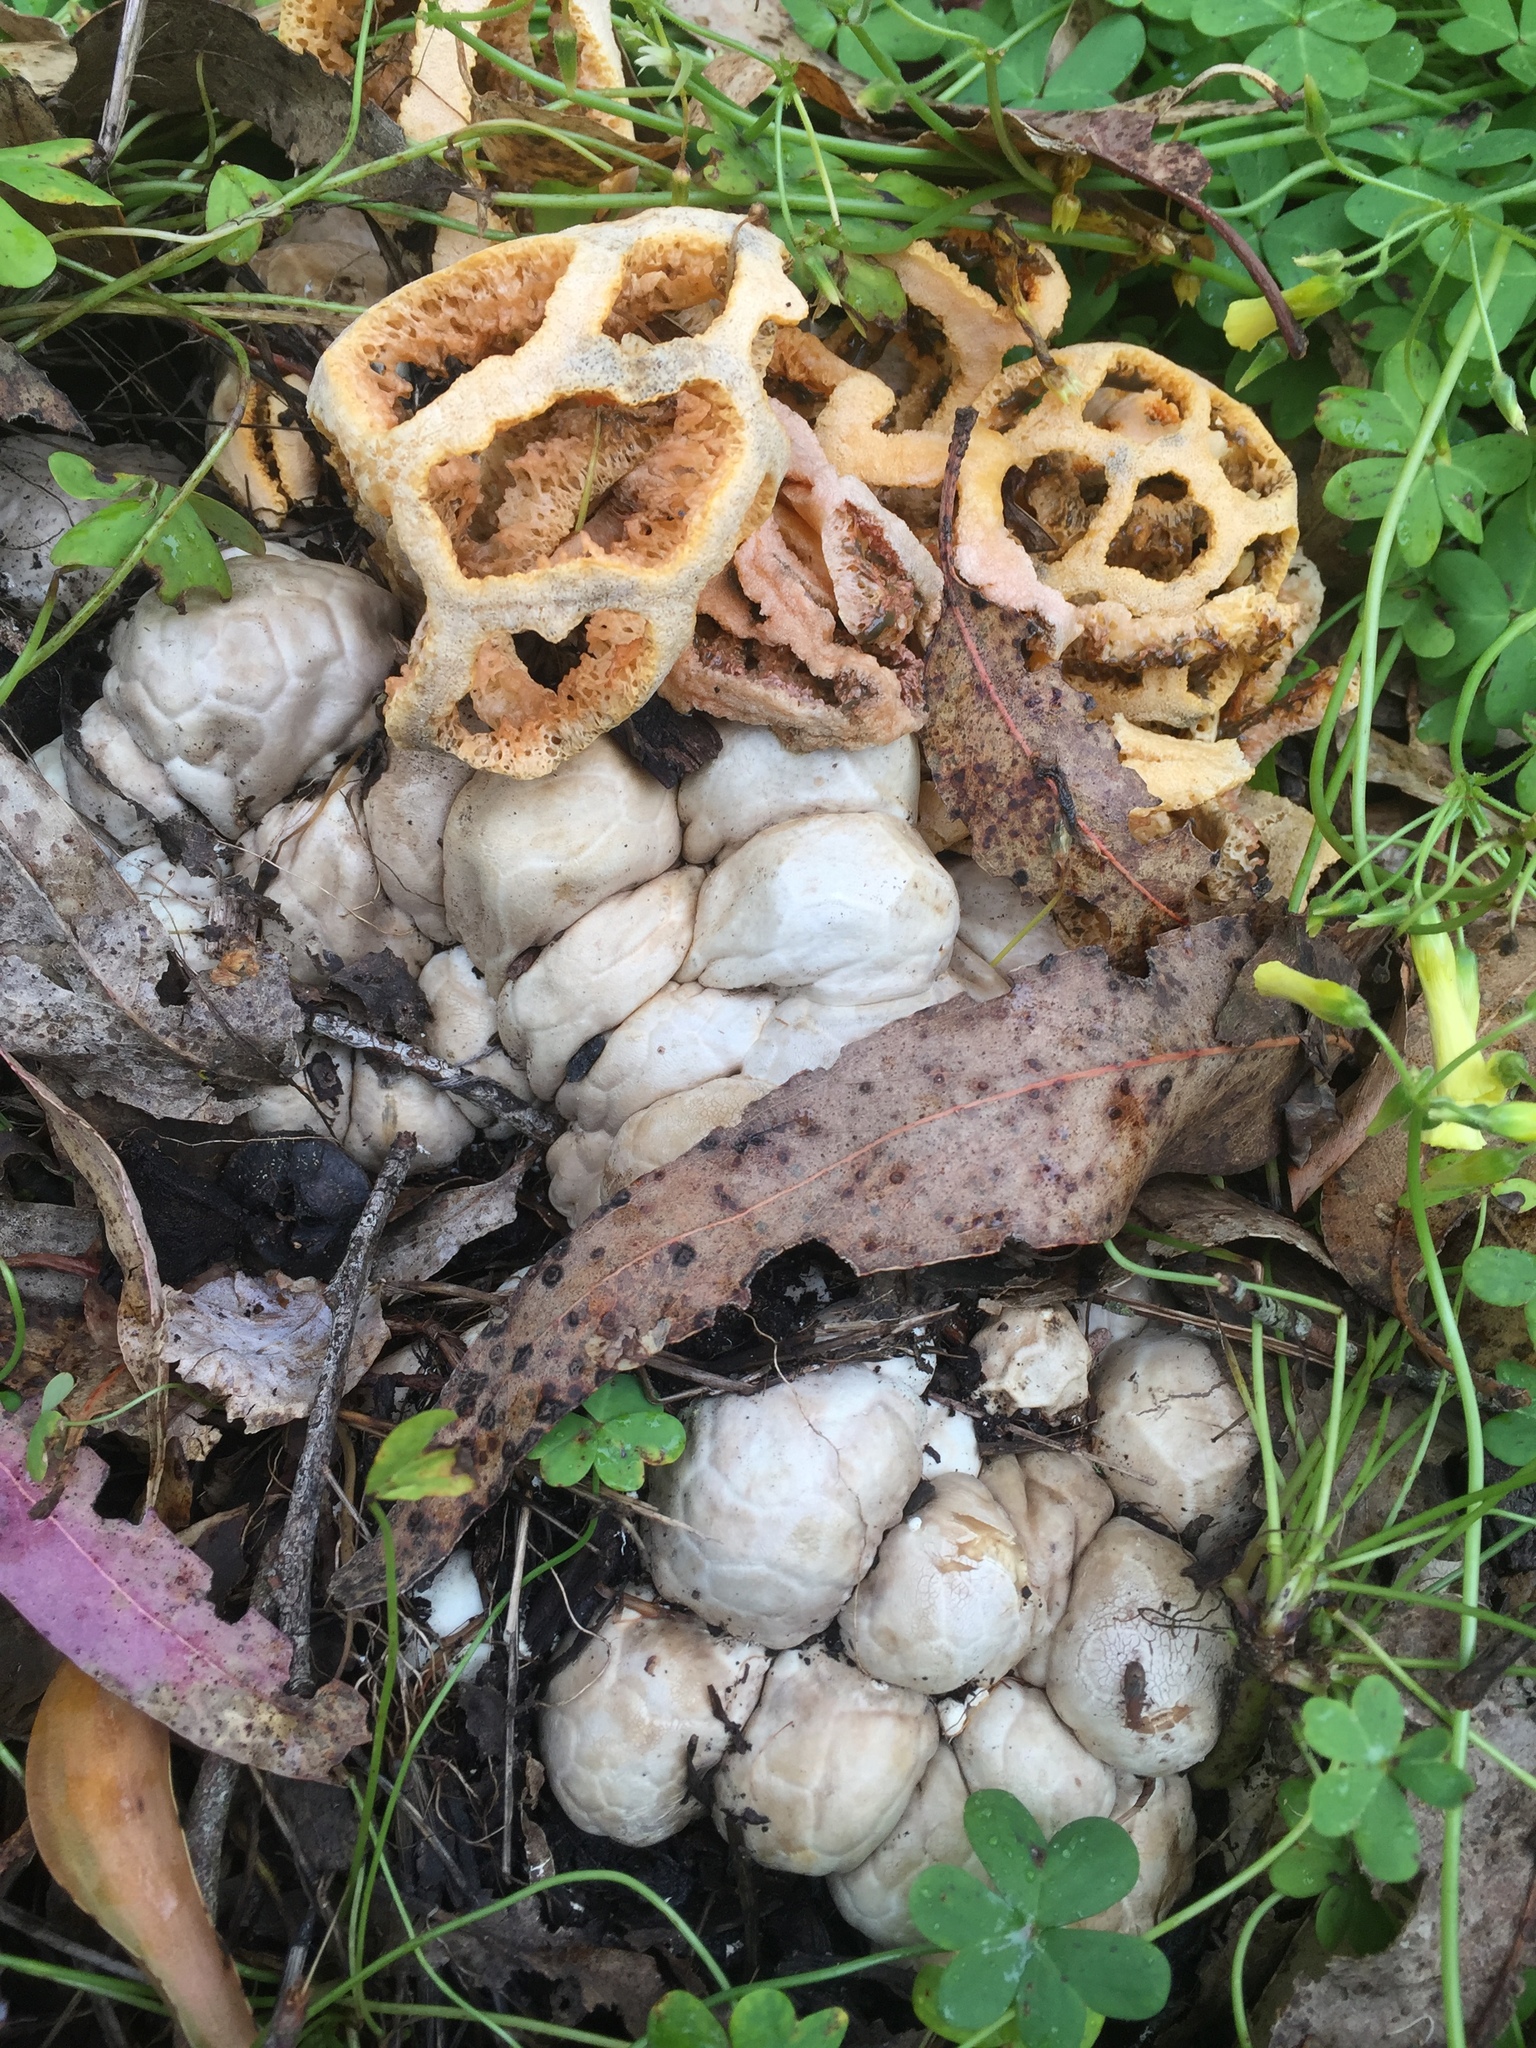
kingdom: Fungi
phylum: Basidiomycota
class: Agaricomycetes
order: Phallales
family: Phallaceae
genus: Clathrus
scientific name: Clathrus ruber
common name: Red cage
